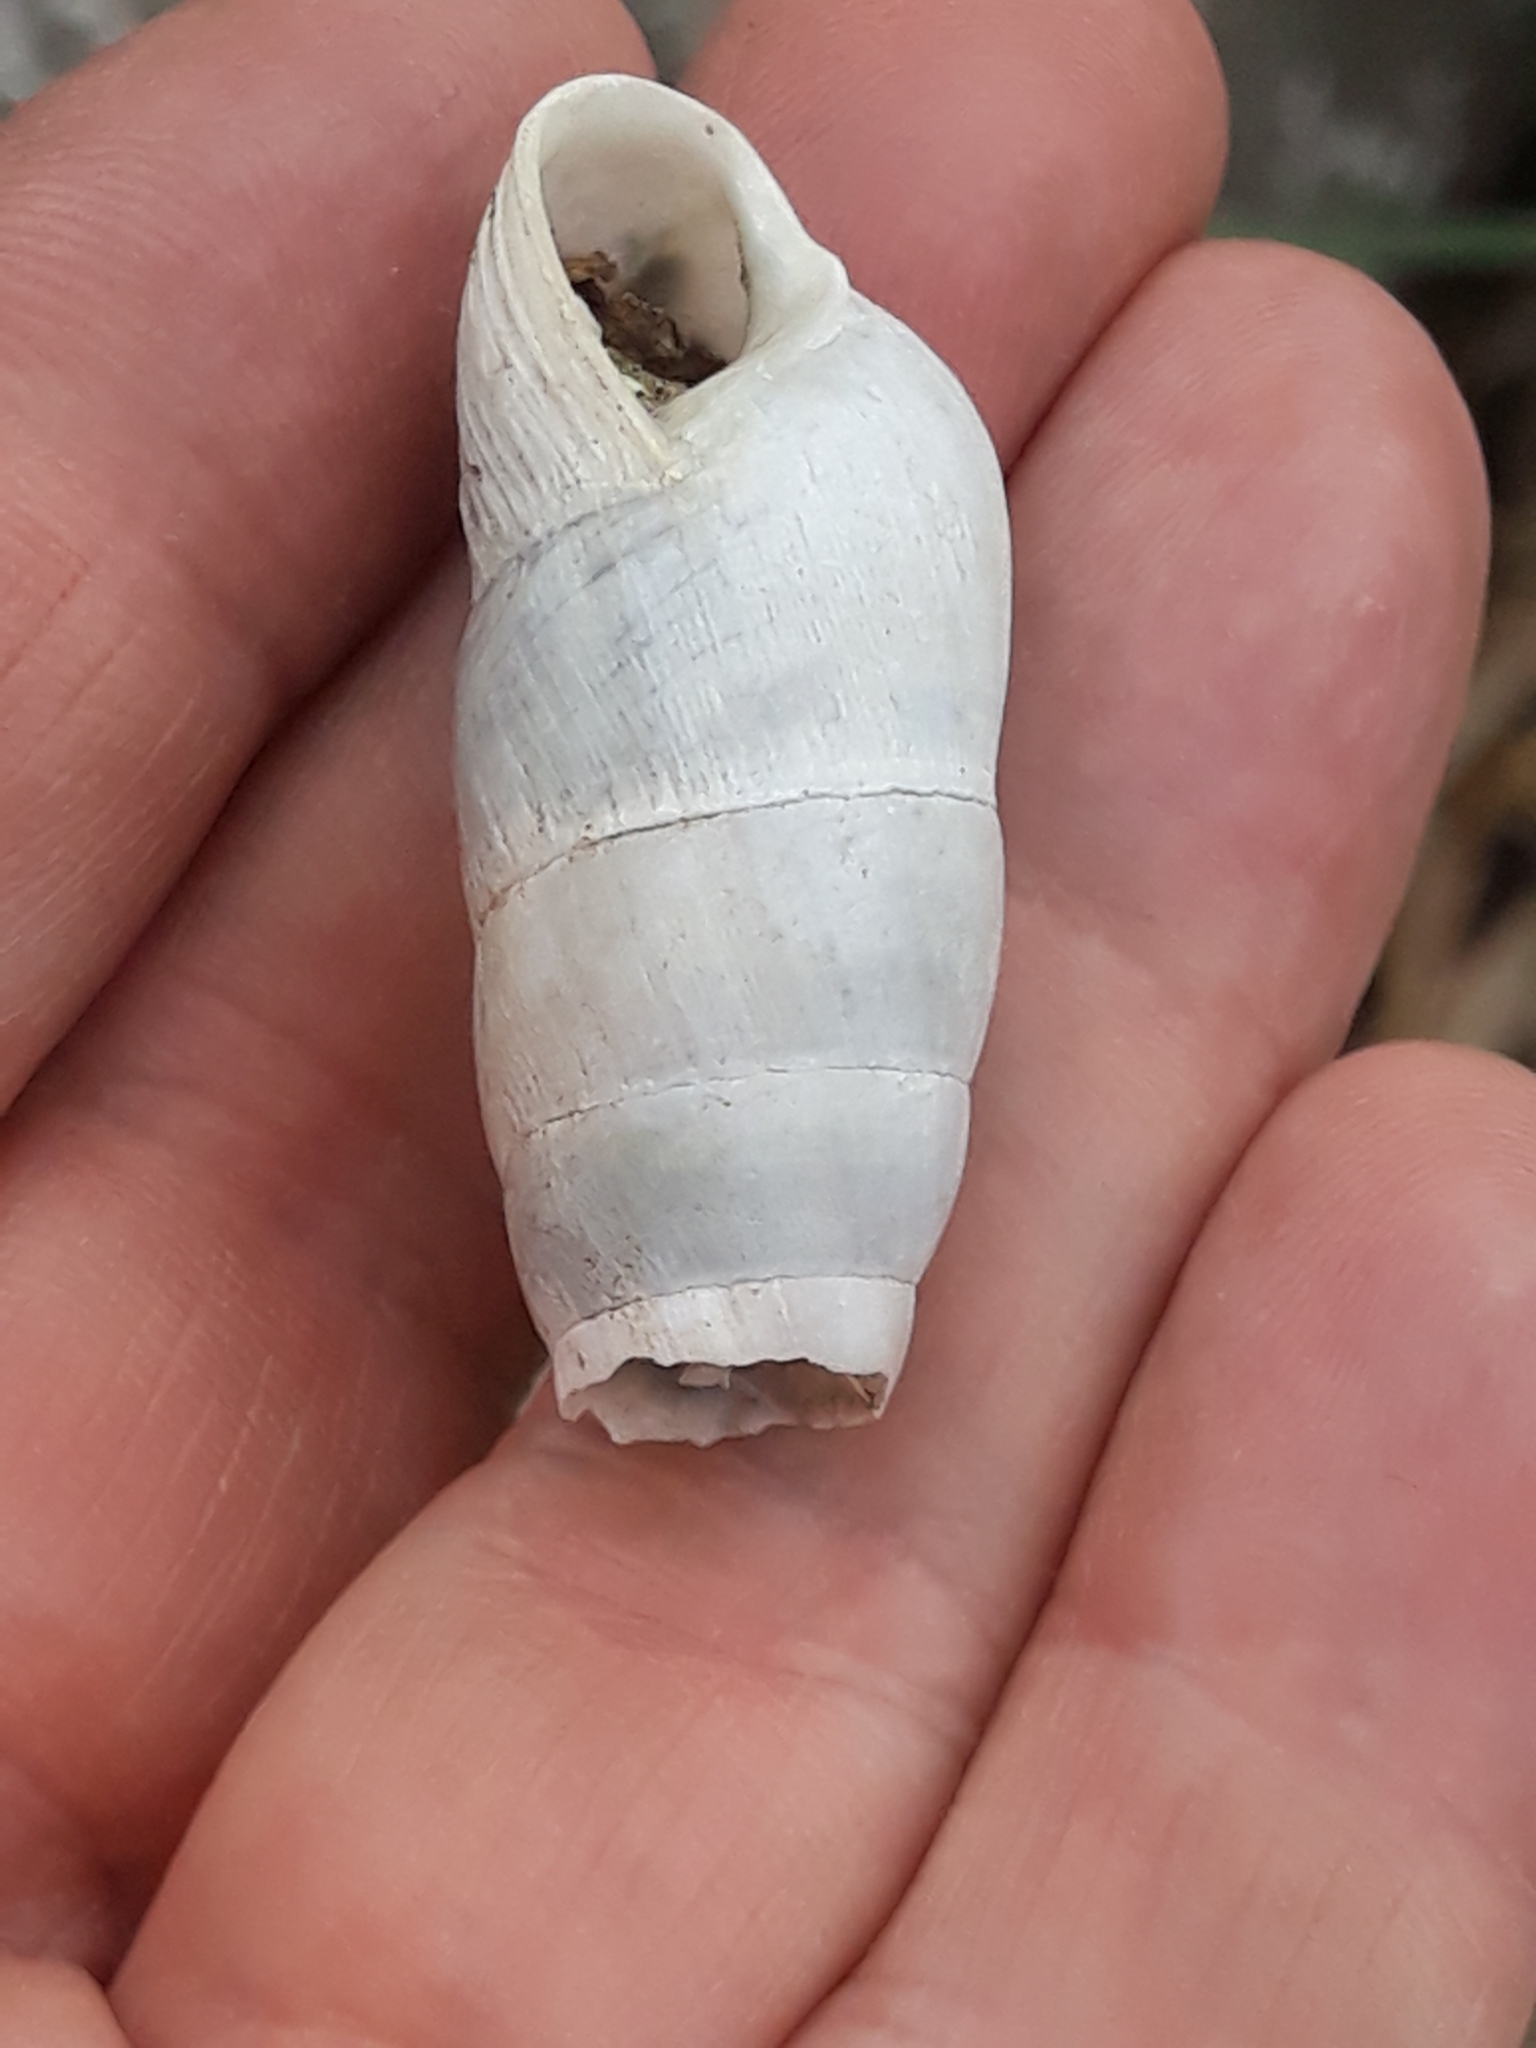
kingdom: Animalia
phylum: Mollusca
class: Gastropoda
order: Stylommatophora
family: Achatinidae
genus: Rumina
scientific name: Rumina decollata
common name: Decollate snail
